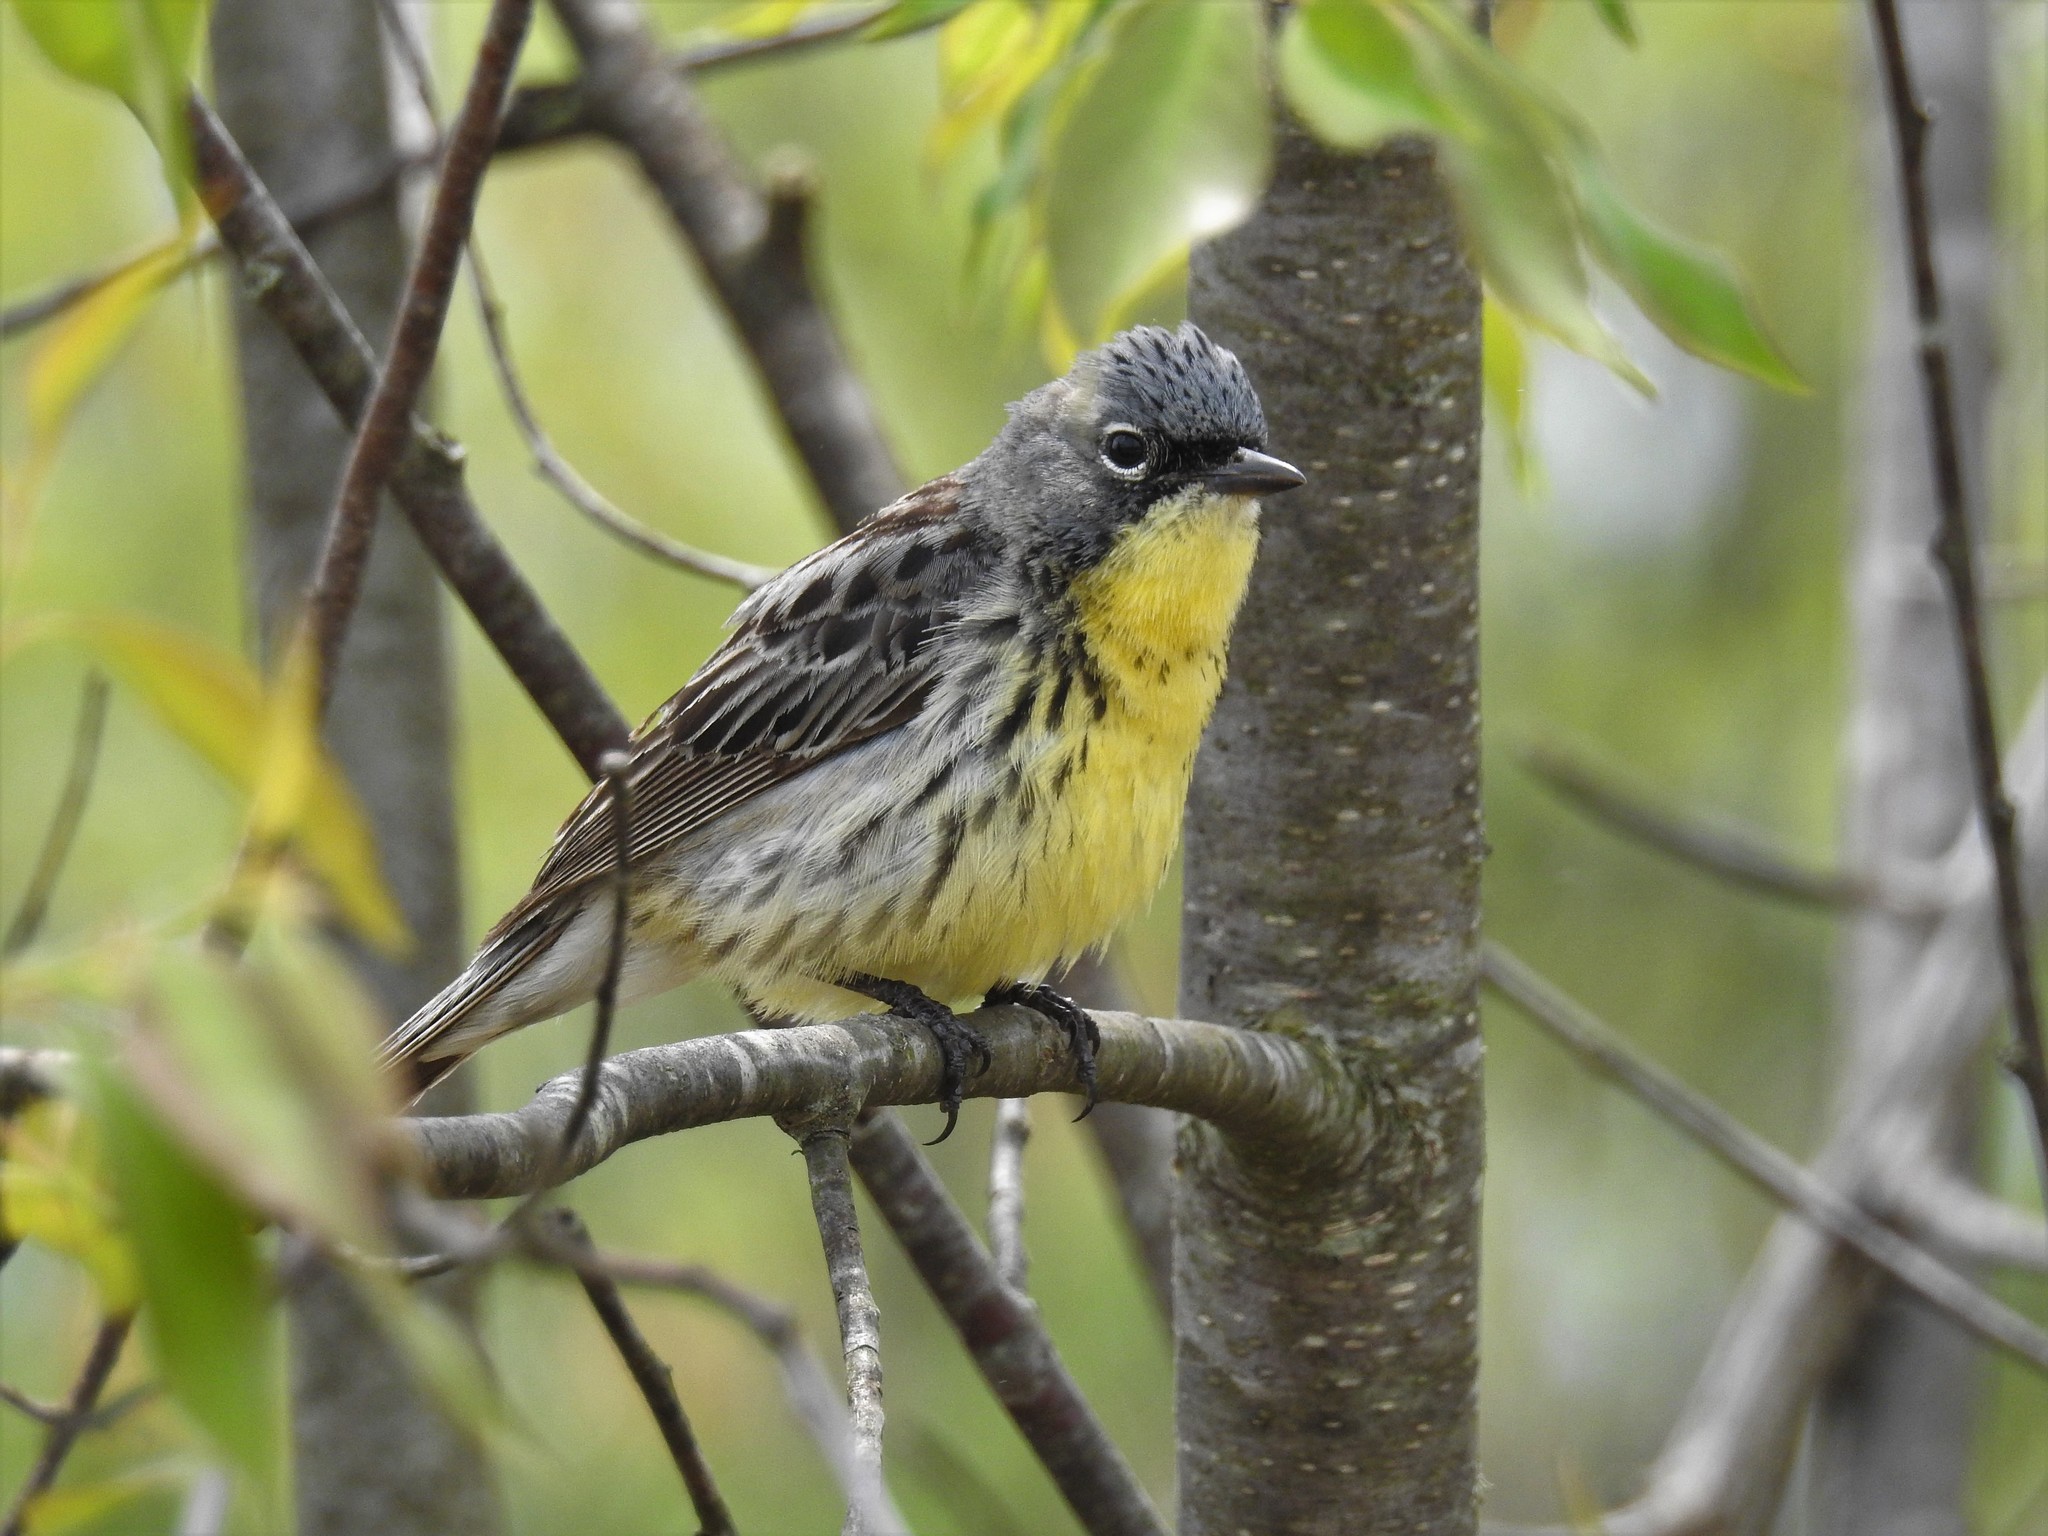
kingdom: Animalia
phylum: Chordata
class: Aves
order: Passeriformes
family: Parulidae
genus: Setophaga
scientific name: Setophaga kirtlandii
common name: Kirtland's warbler
